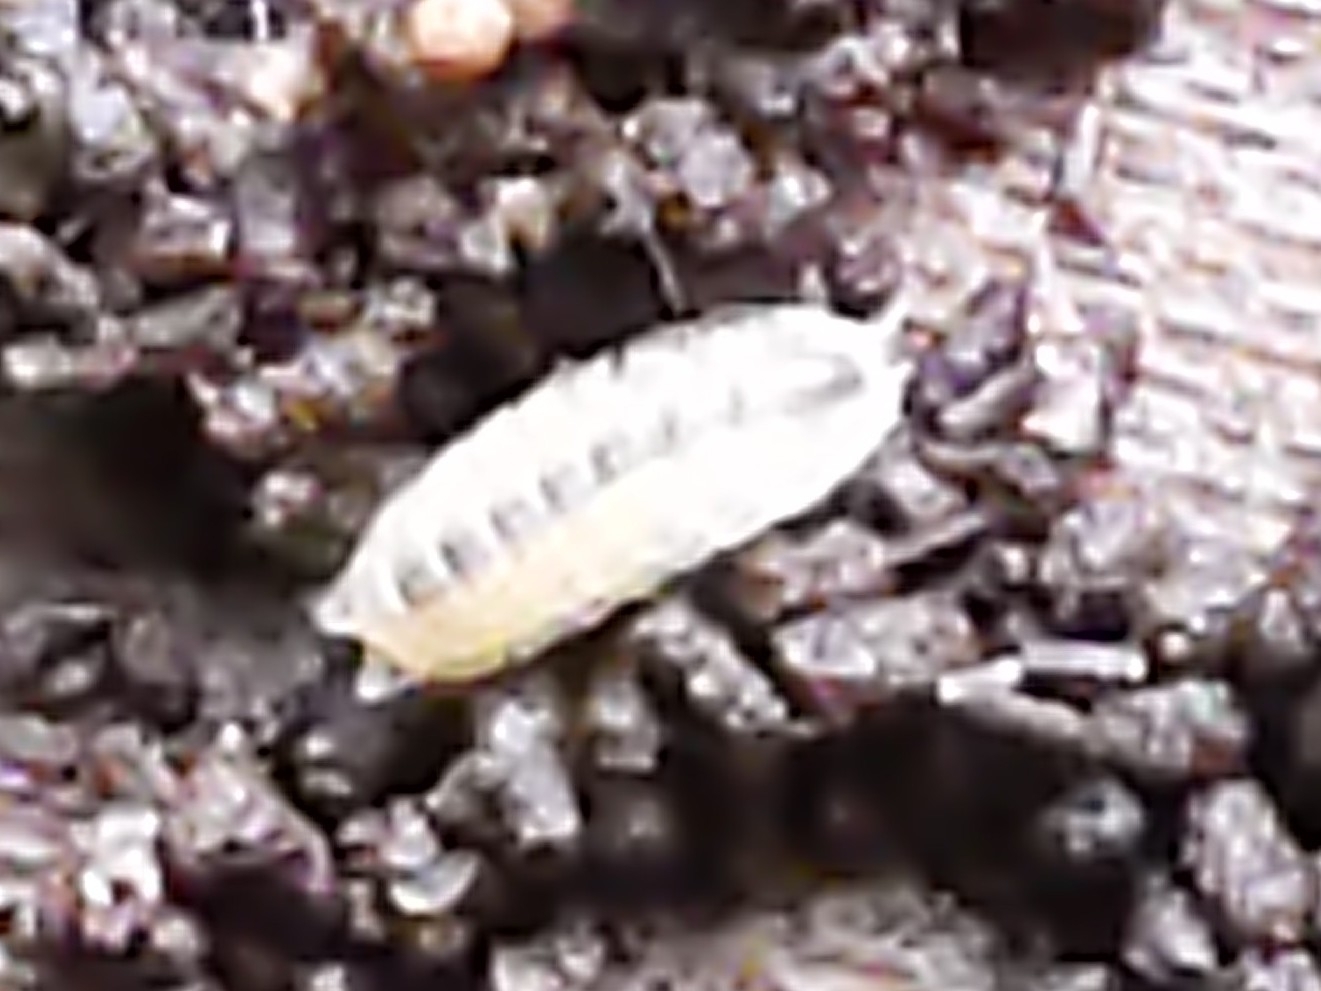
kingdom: Animalia
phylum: Arthropoda
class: Malacostraca
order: Isopoda
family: Trichoniscidae
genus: Haplophthalmus
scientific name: Haplophthalmus danicus
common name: Pillbug
